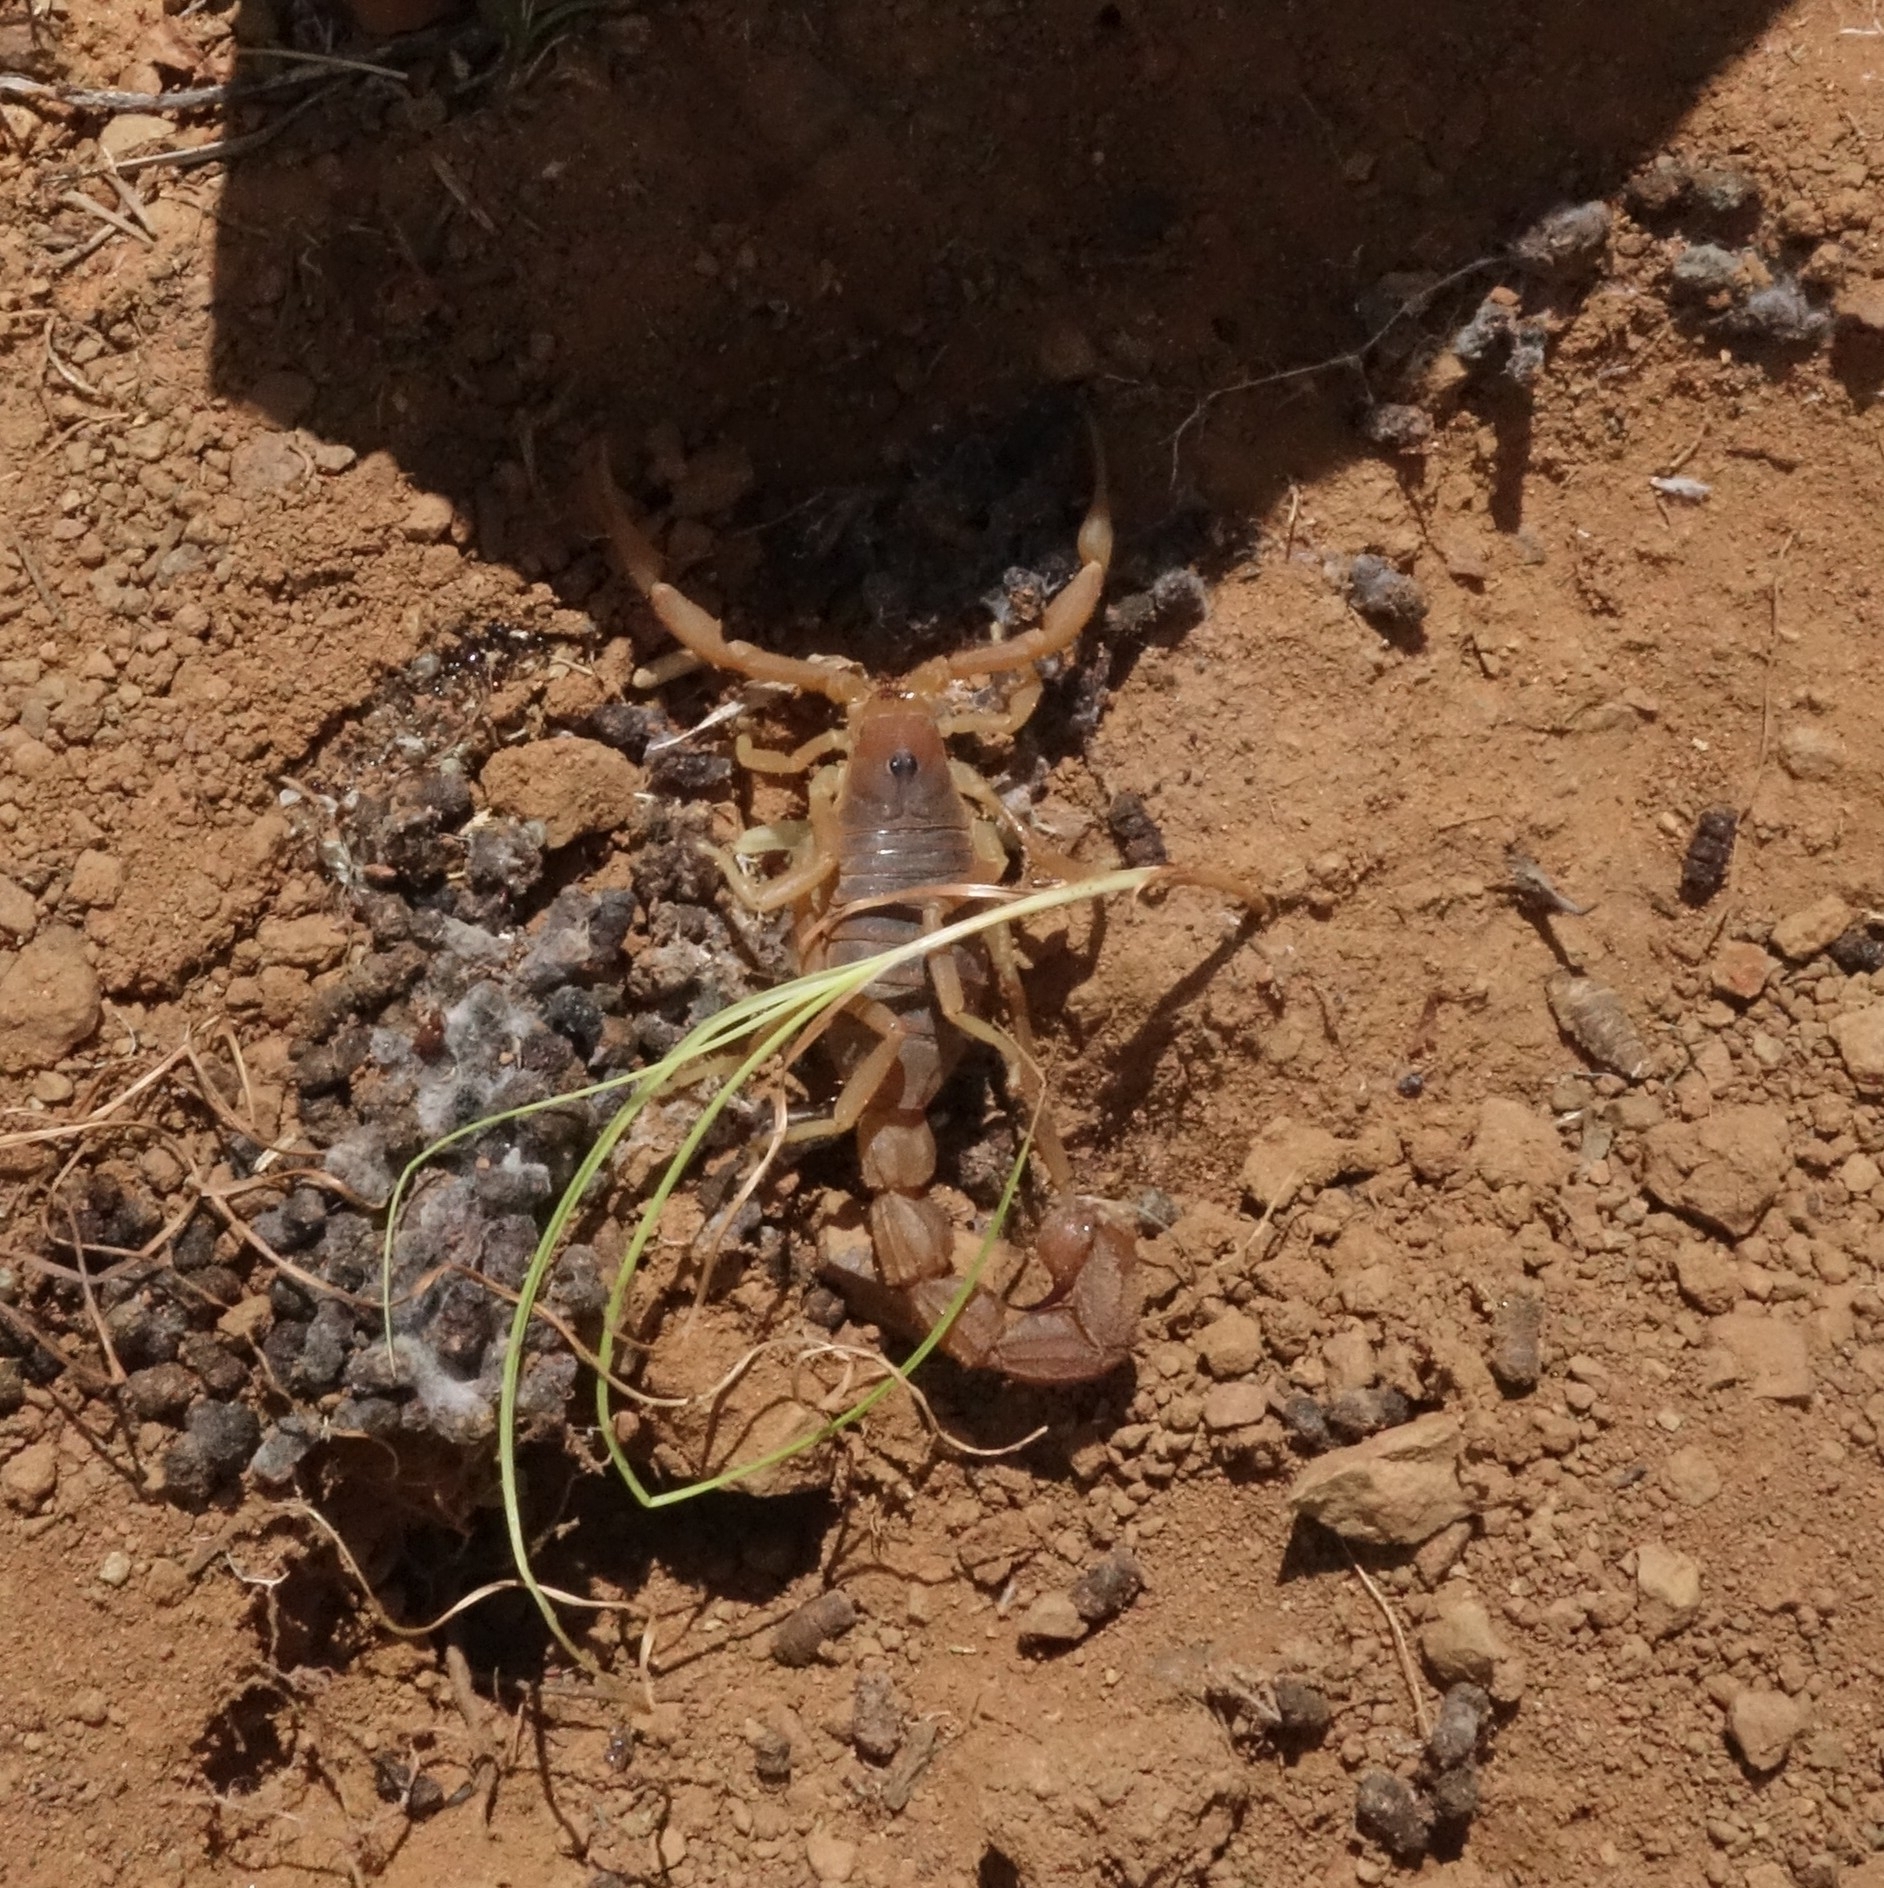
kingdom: Animalia
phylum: Arthropoda
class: Arachnida
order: Scorpiones
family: Buthidae
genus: Parabuthus
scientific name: Parabuthus planicauda
